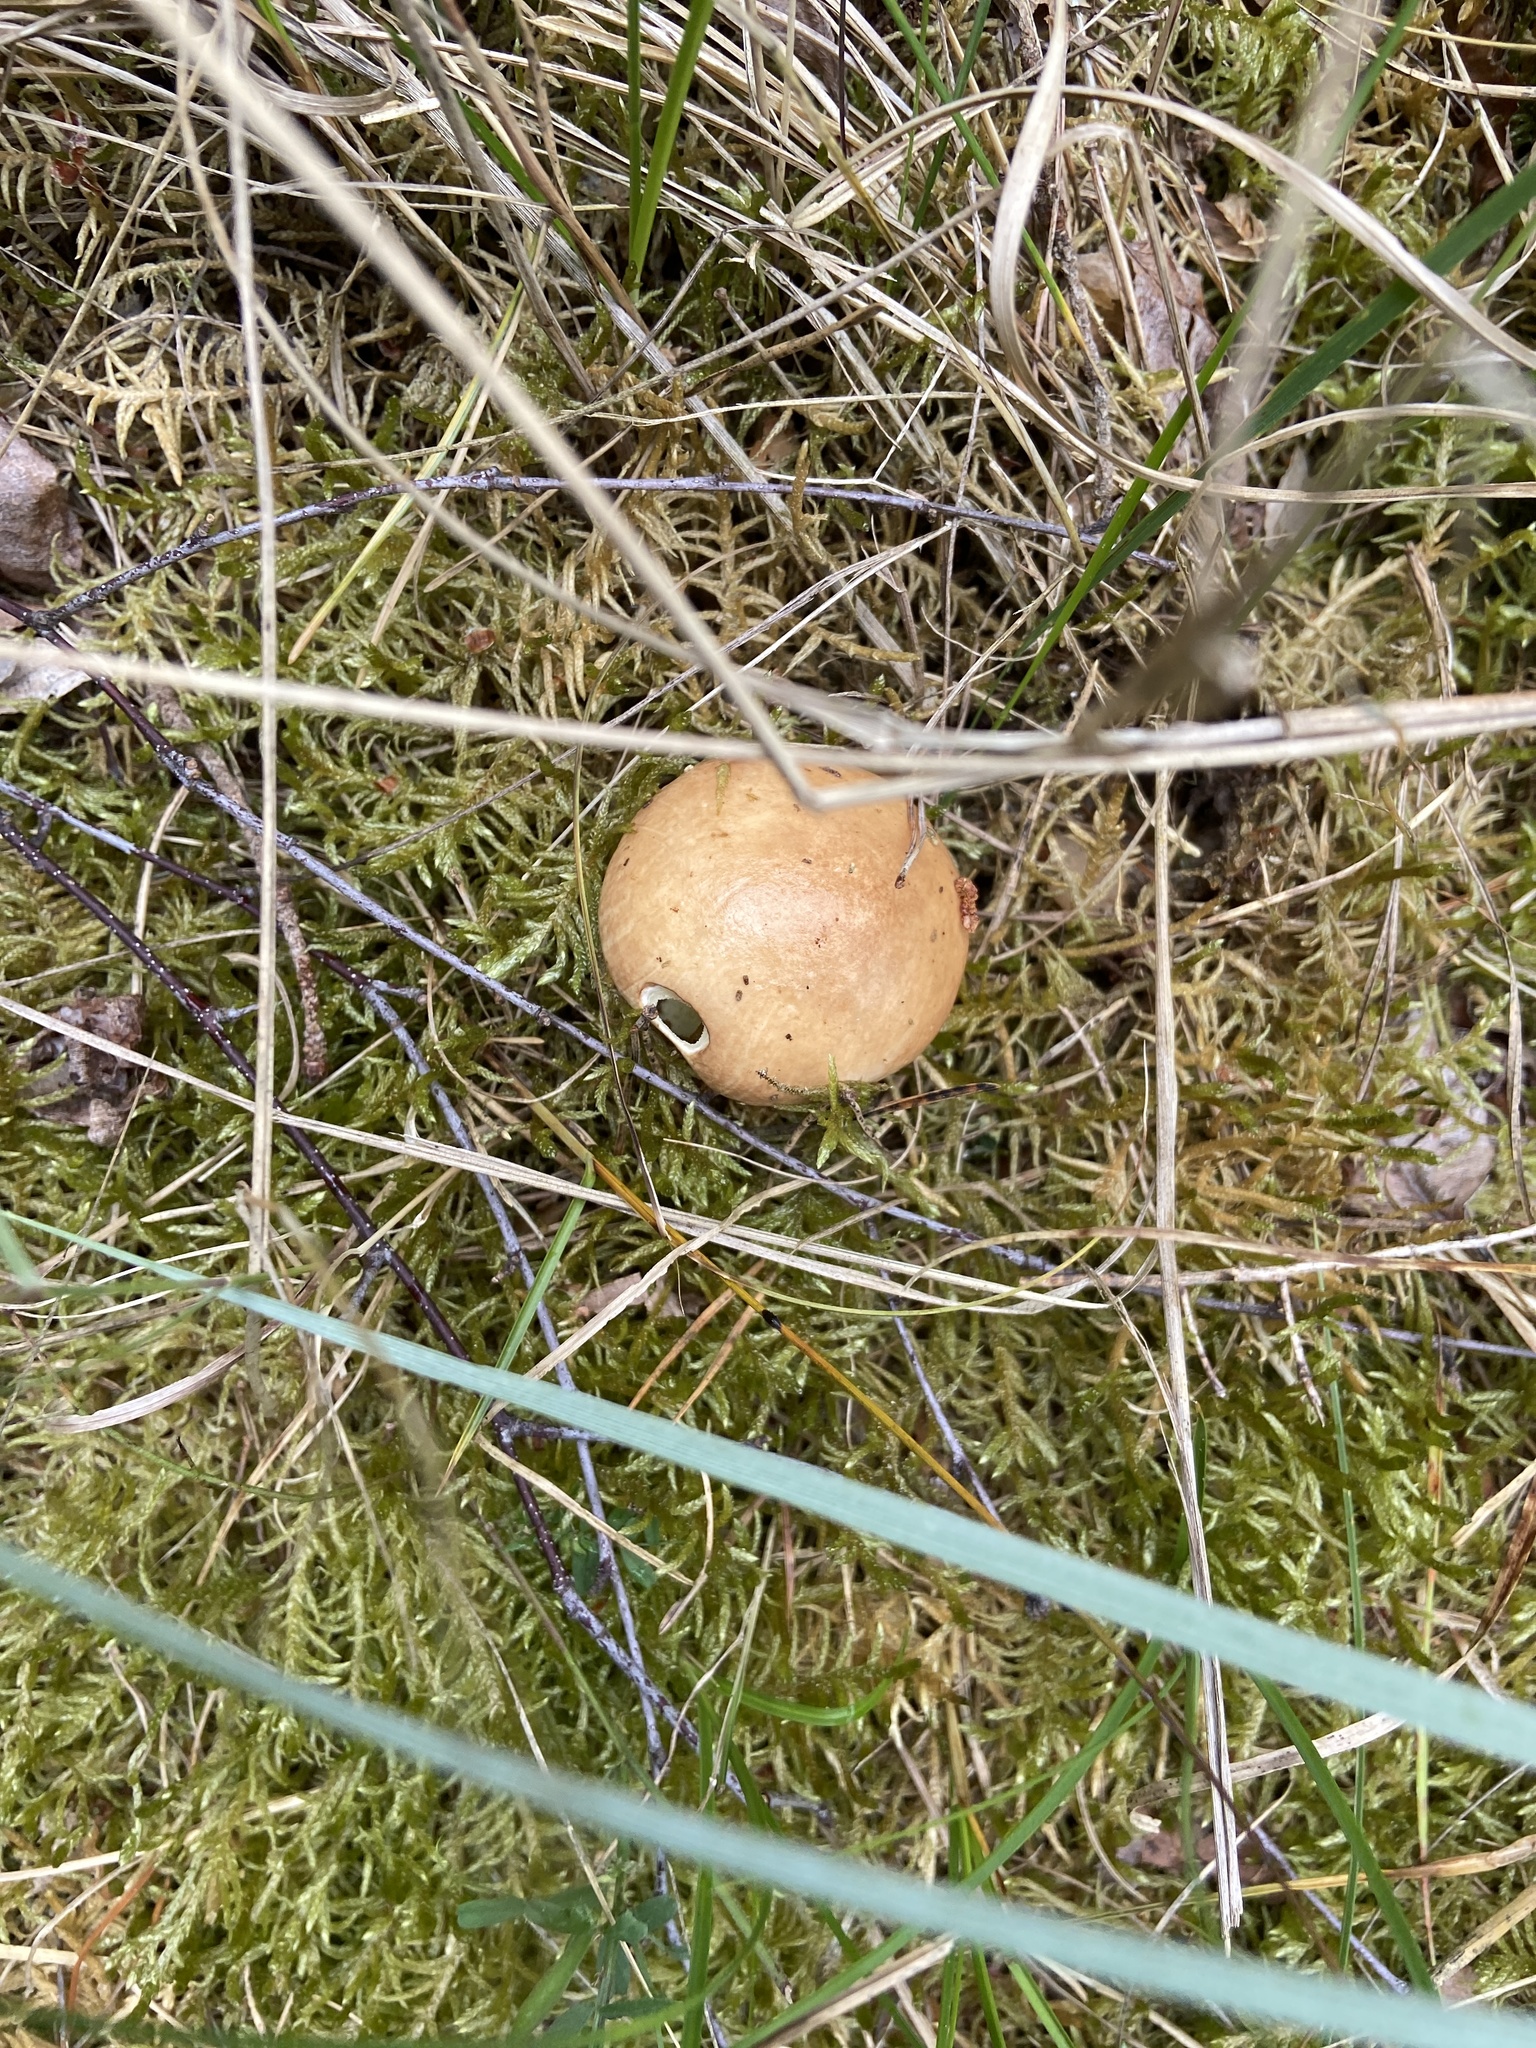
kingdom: Fungi
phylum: Basidiomycota
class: Agaricomycetes
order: Boletales
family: Suillaceae
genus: Suillus
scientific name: Suillus granulatus
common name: Weeping bolete
